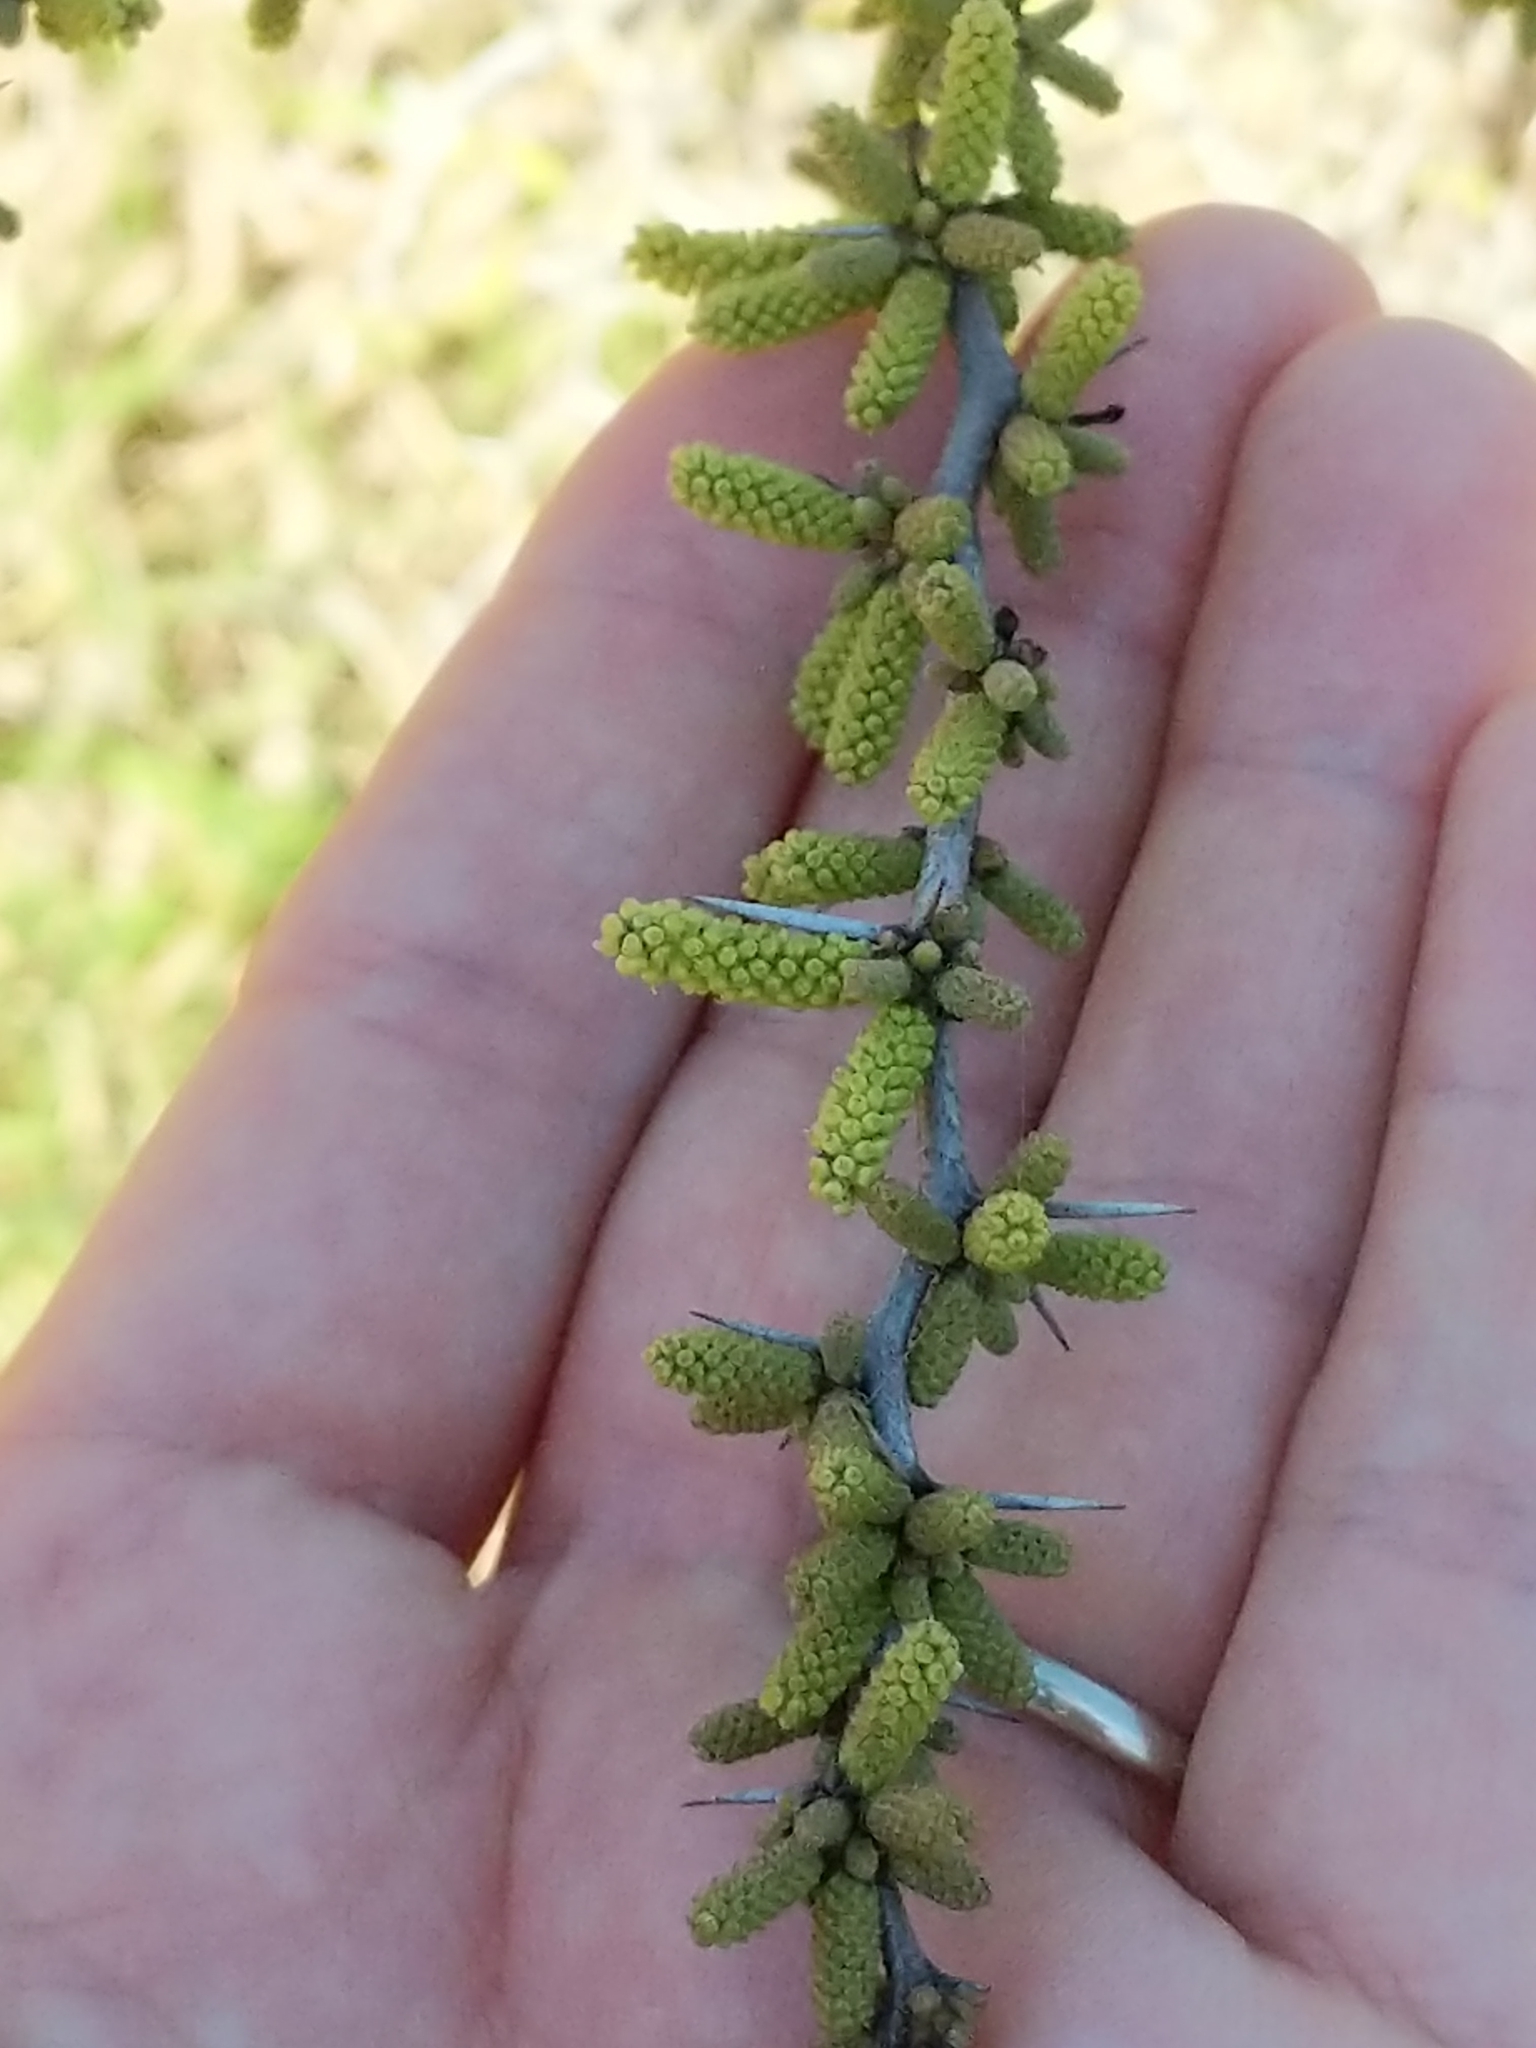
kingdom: Plantae
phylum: Tracheophyta
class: Magnoliopsida
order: Fabales
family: Fabaceae
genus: Vachellia
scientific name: Vachellia rigidula
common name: Blackbrush
